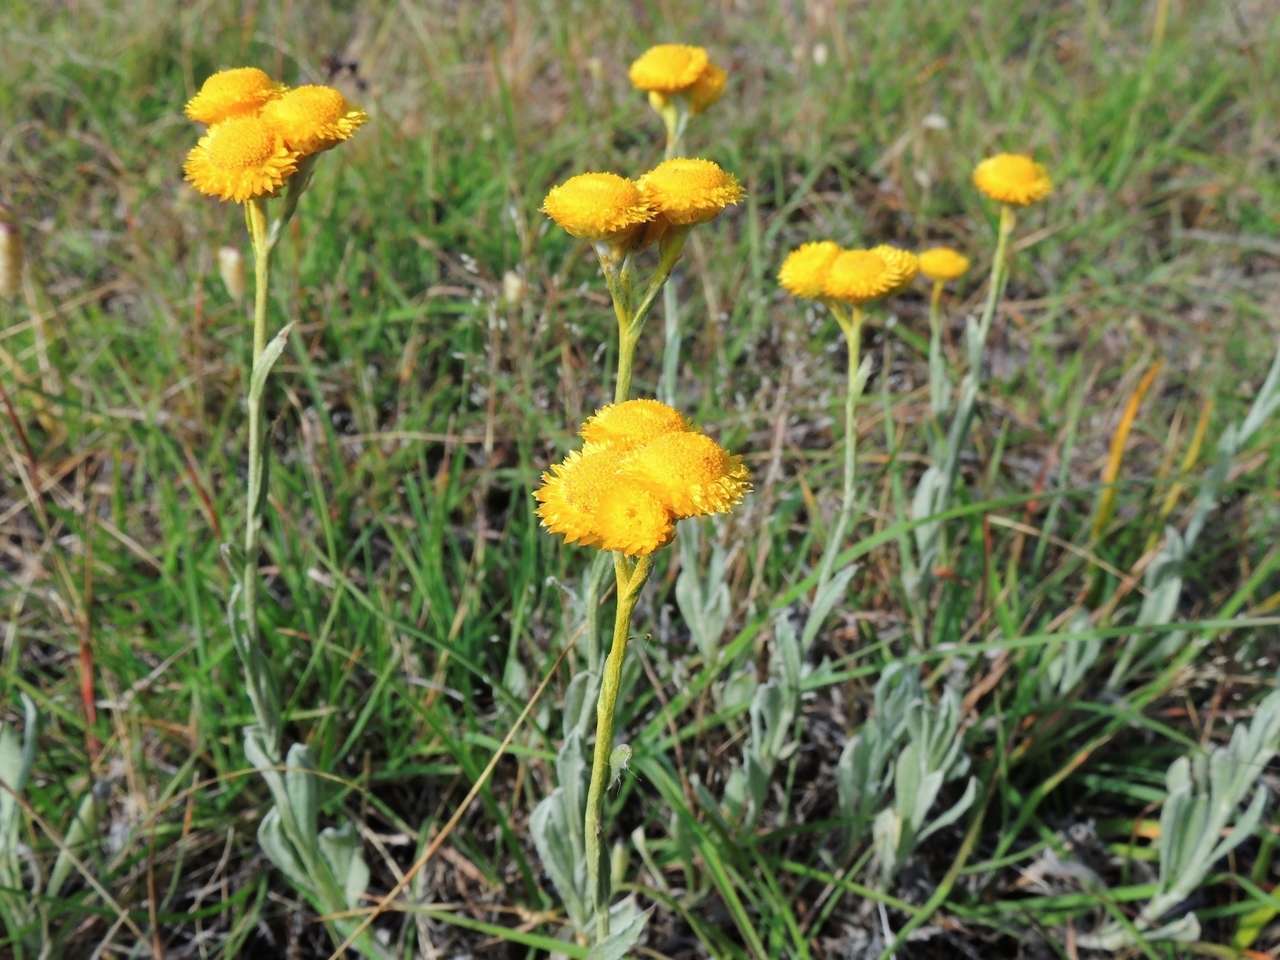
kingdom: Plantae
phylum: Tracheophyta
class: Magnoliopsida
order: Asterales
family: Asteraceae
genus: Chrysocephalum
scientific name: Chrysocephalum apiculatum
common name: Common everlasting
